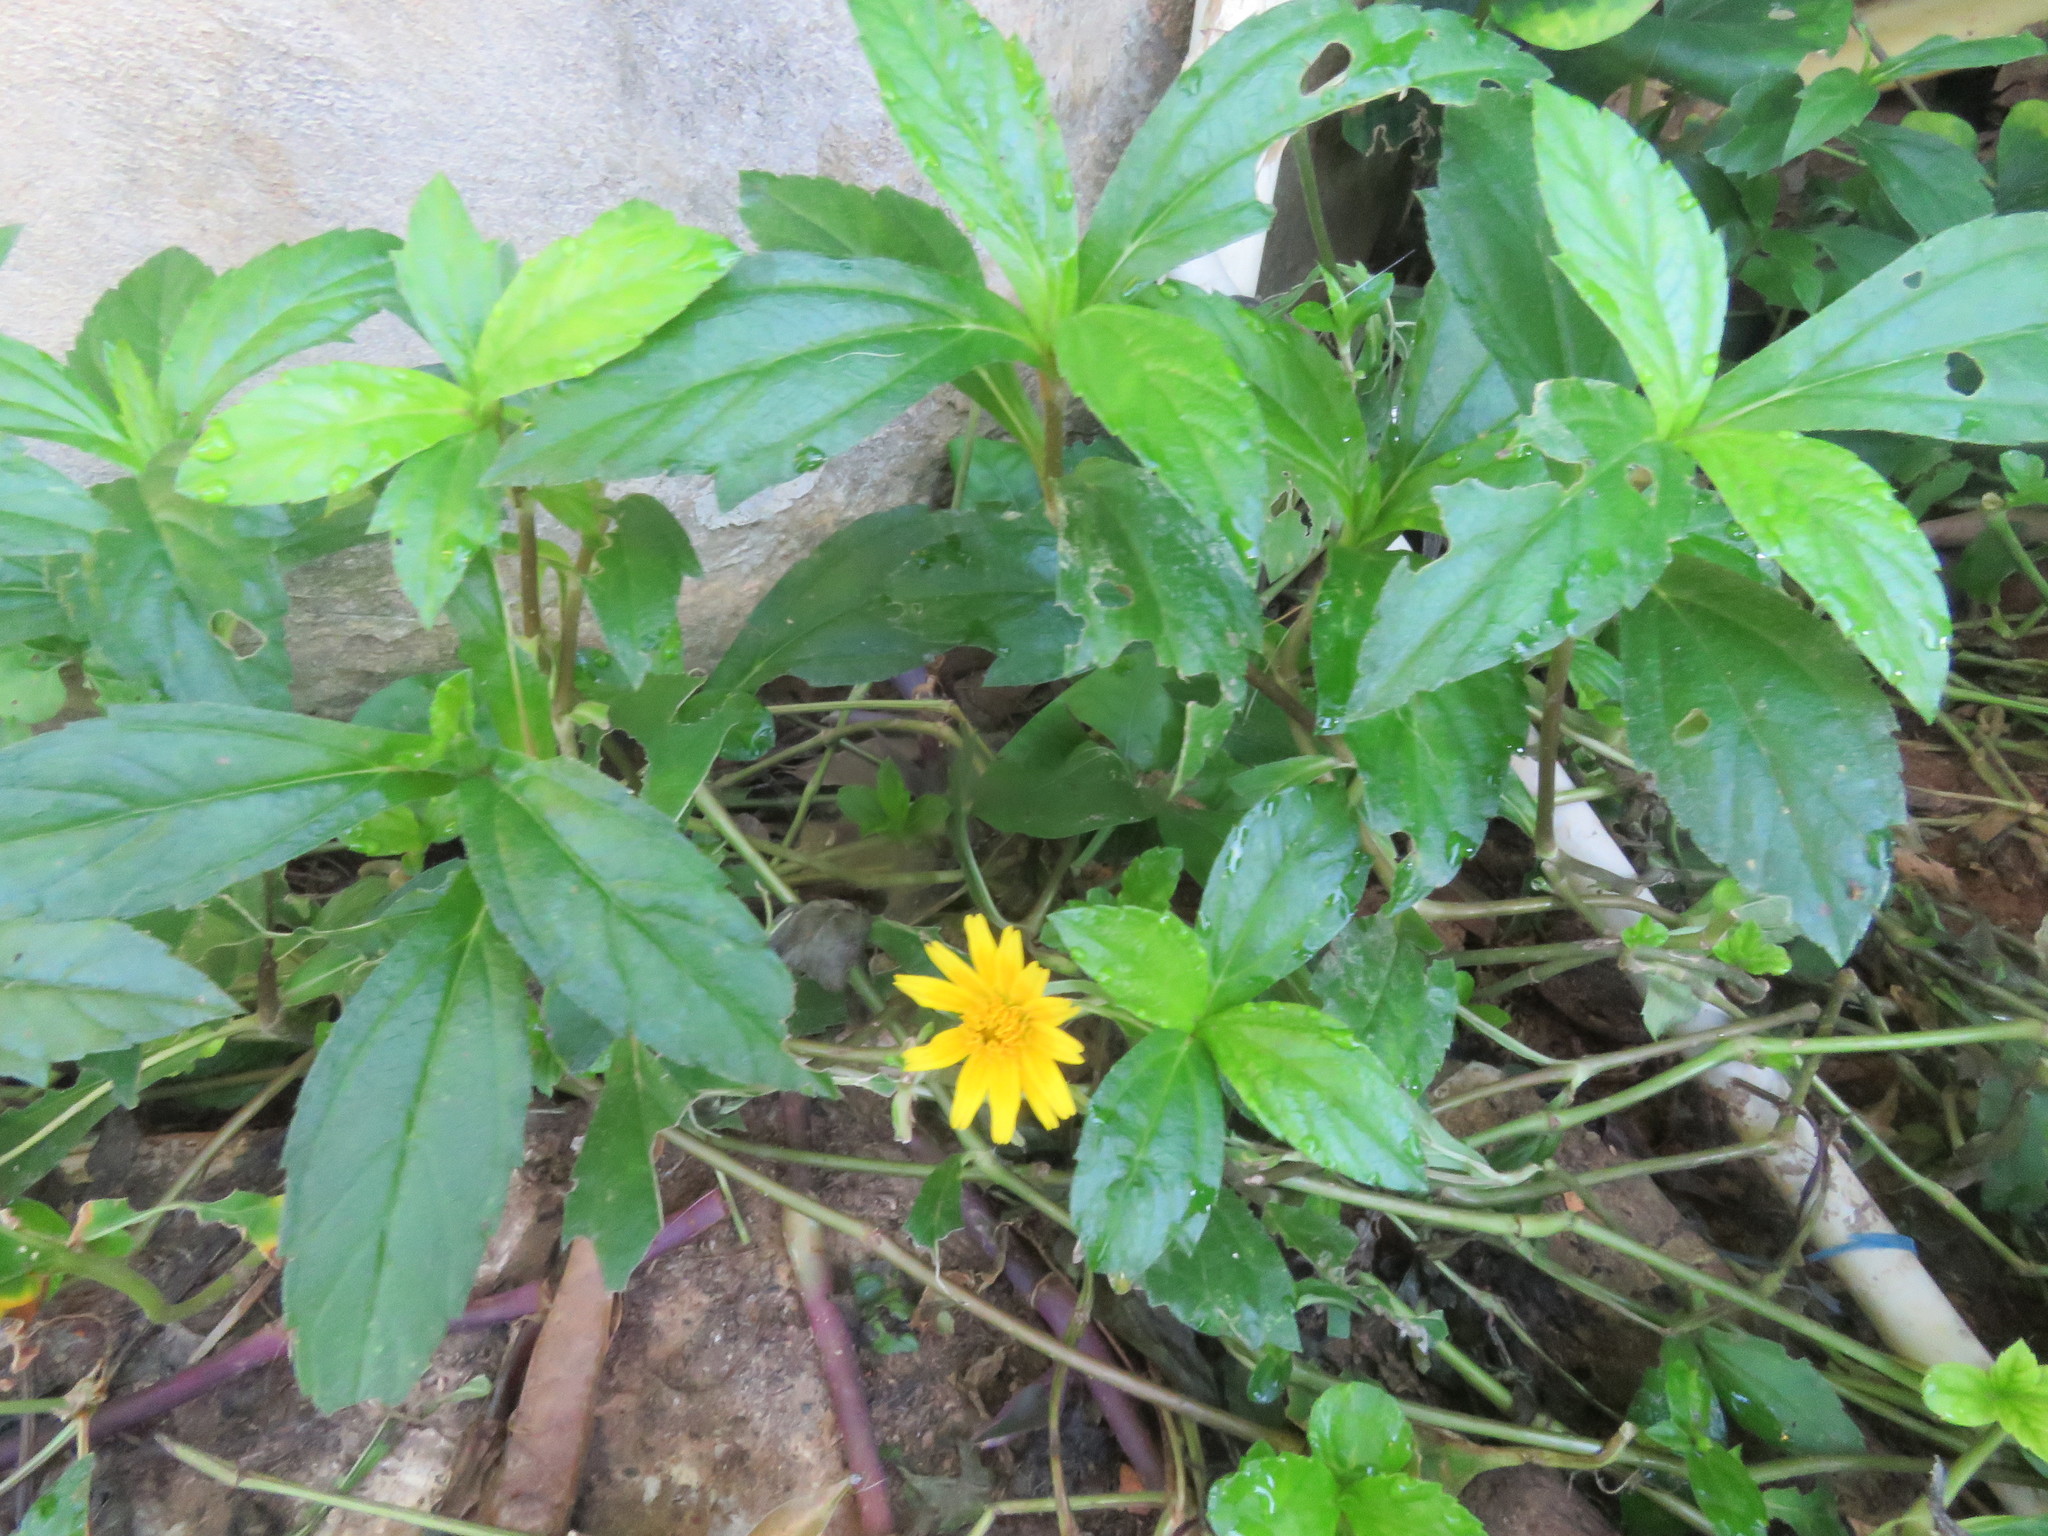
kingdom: Plantae
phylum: Tracheophyta
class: Magnoliopsida
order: Asterales
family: Asteraceae
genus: Sphagneticola
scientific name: Sphagneticola trilobata
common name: Bay biscayne creeping-oxeye
